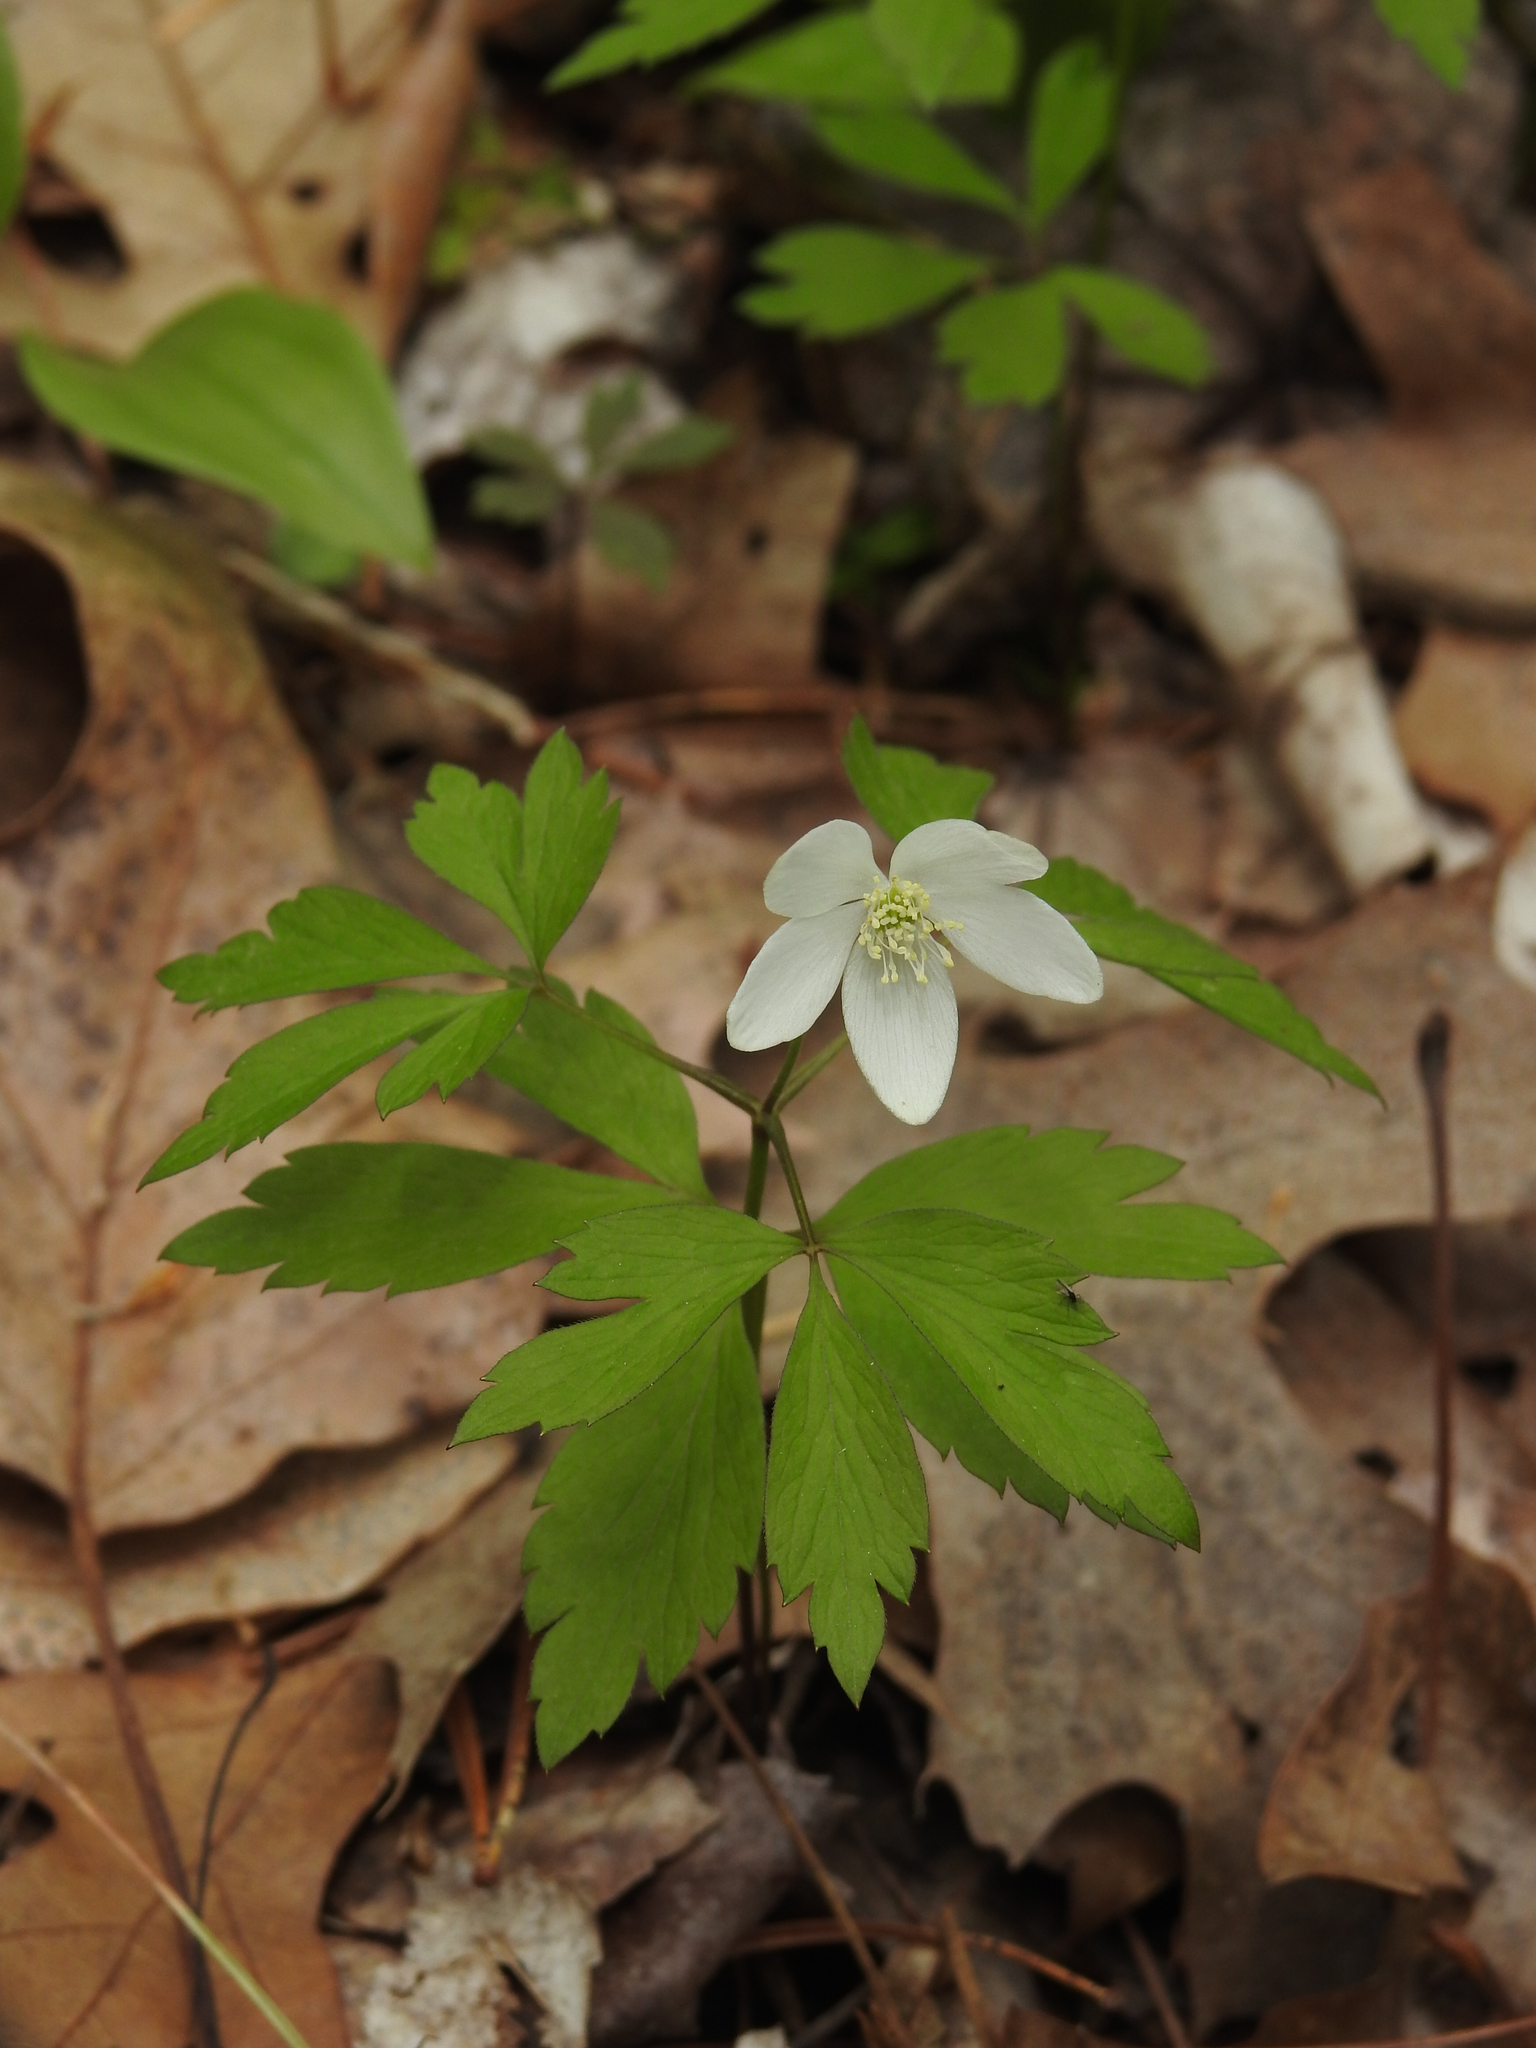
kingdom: Plantae
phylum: Tracheophyta
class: Magnoliopsida
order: Ranunculales
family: Ranunculaceae
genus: Anemone
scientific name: Anemone quinquefolia
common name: Wood anemone
